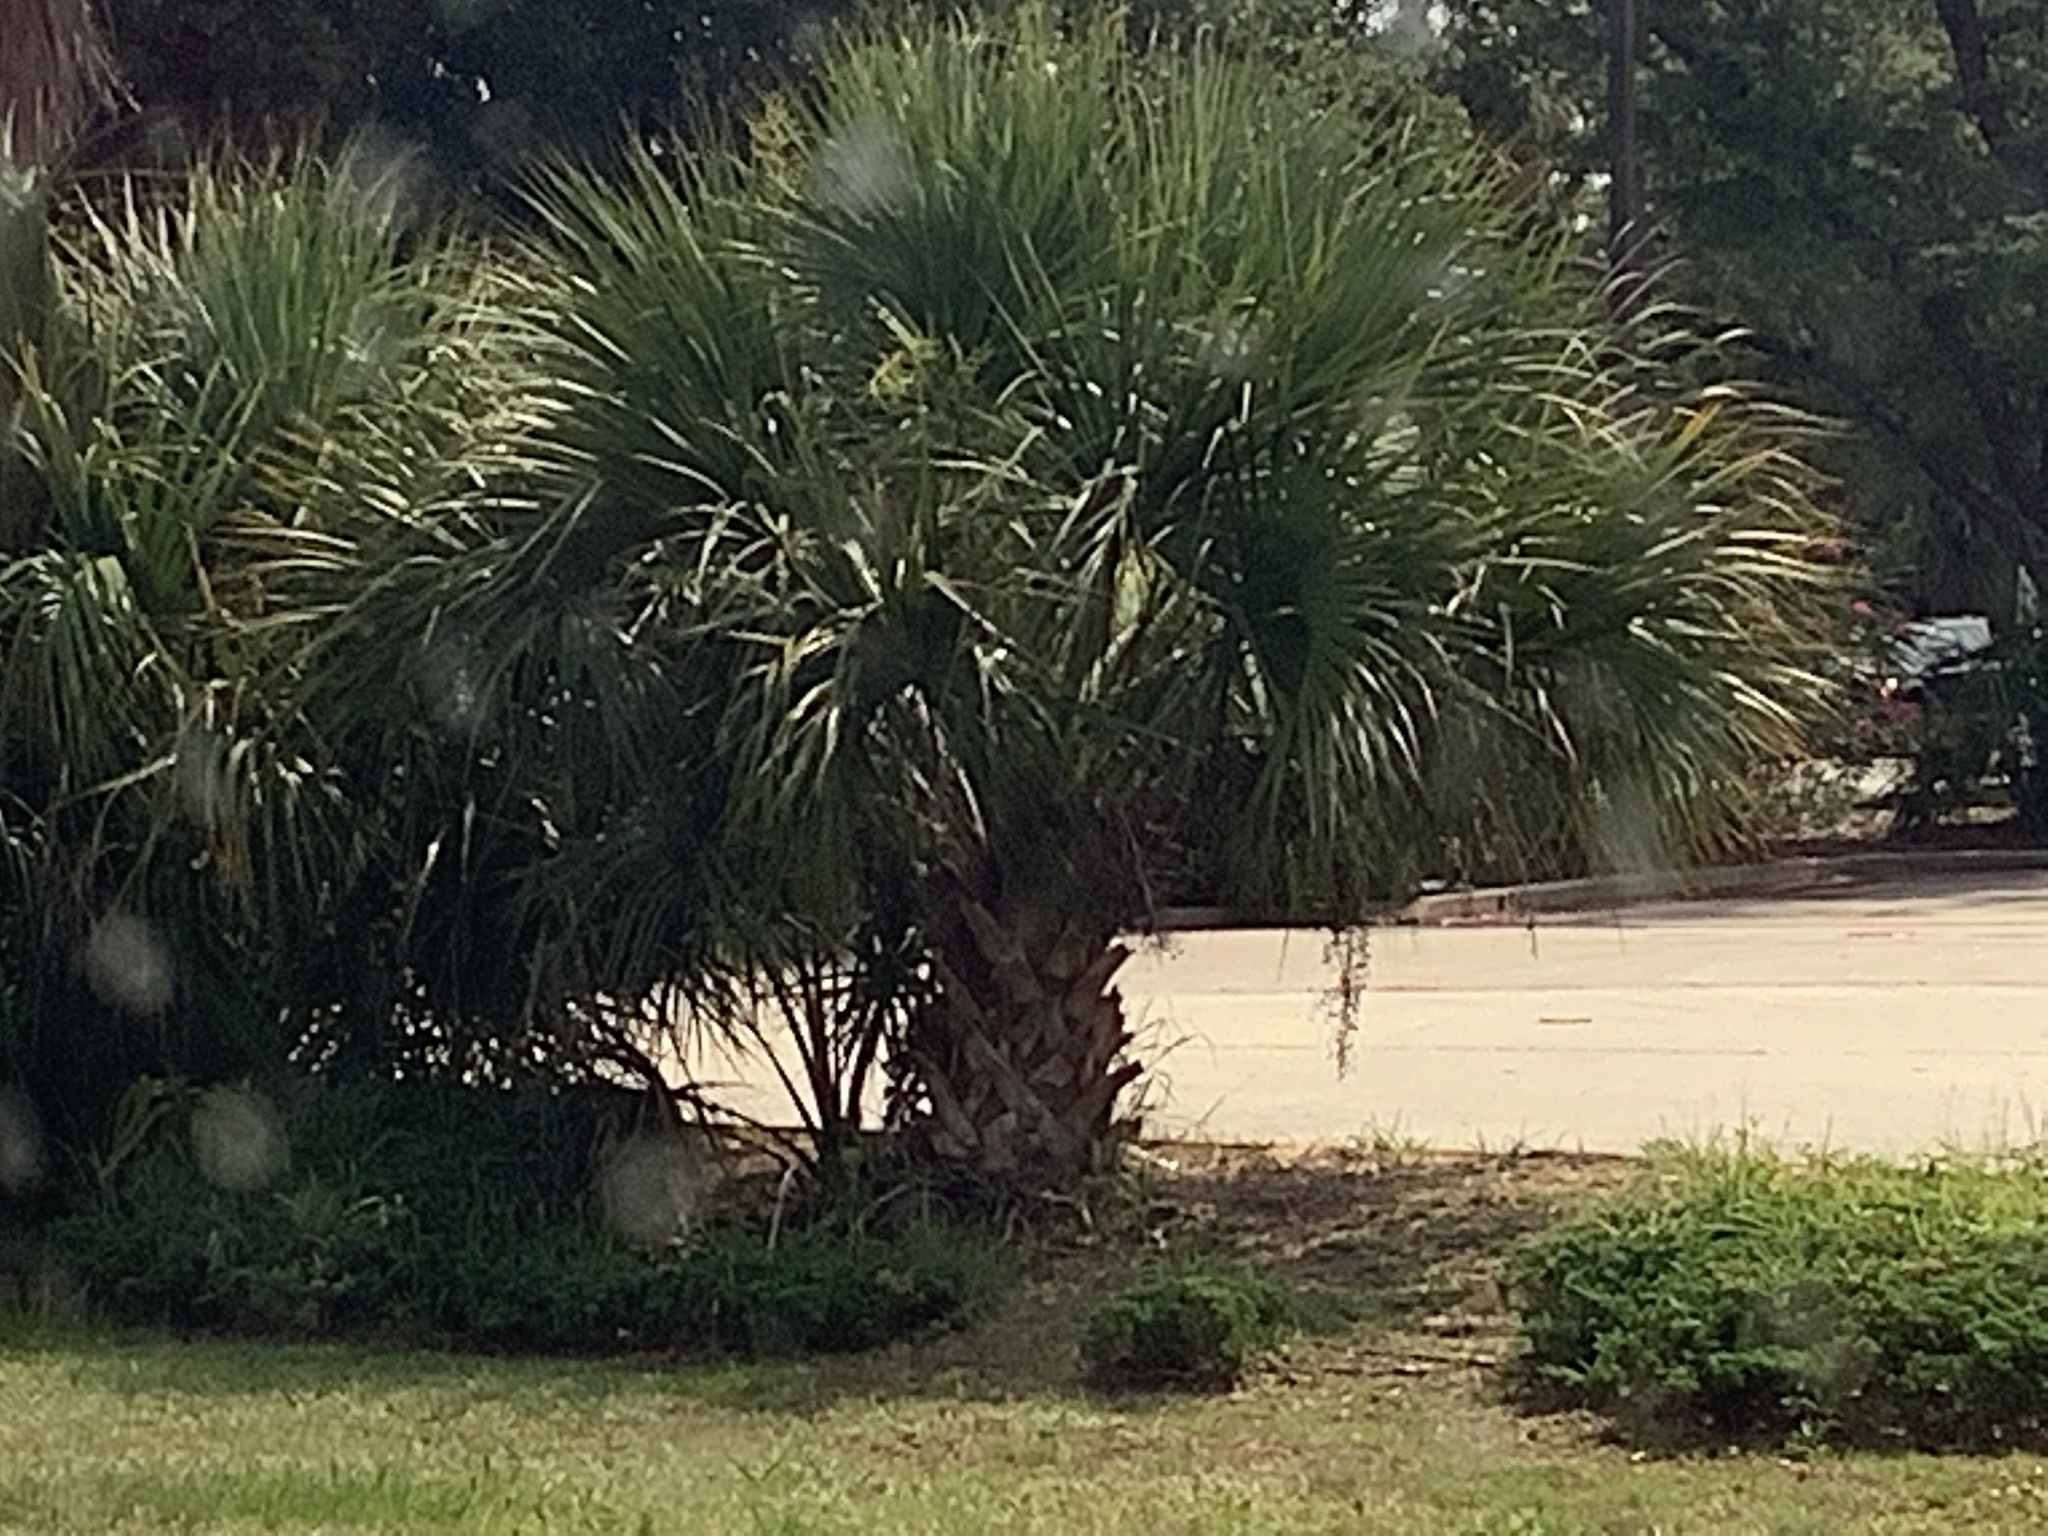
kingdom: Plantae
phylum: Tracheophyta
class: Liliopsida
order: Arecales
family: Arecaceae
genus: Sabal
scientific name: Sabal palmetto
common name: Blue palmetto
